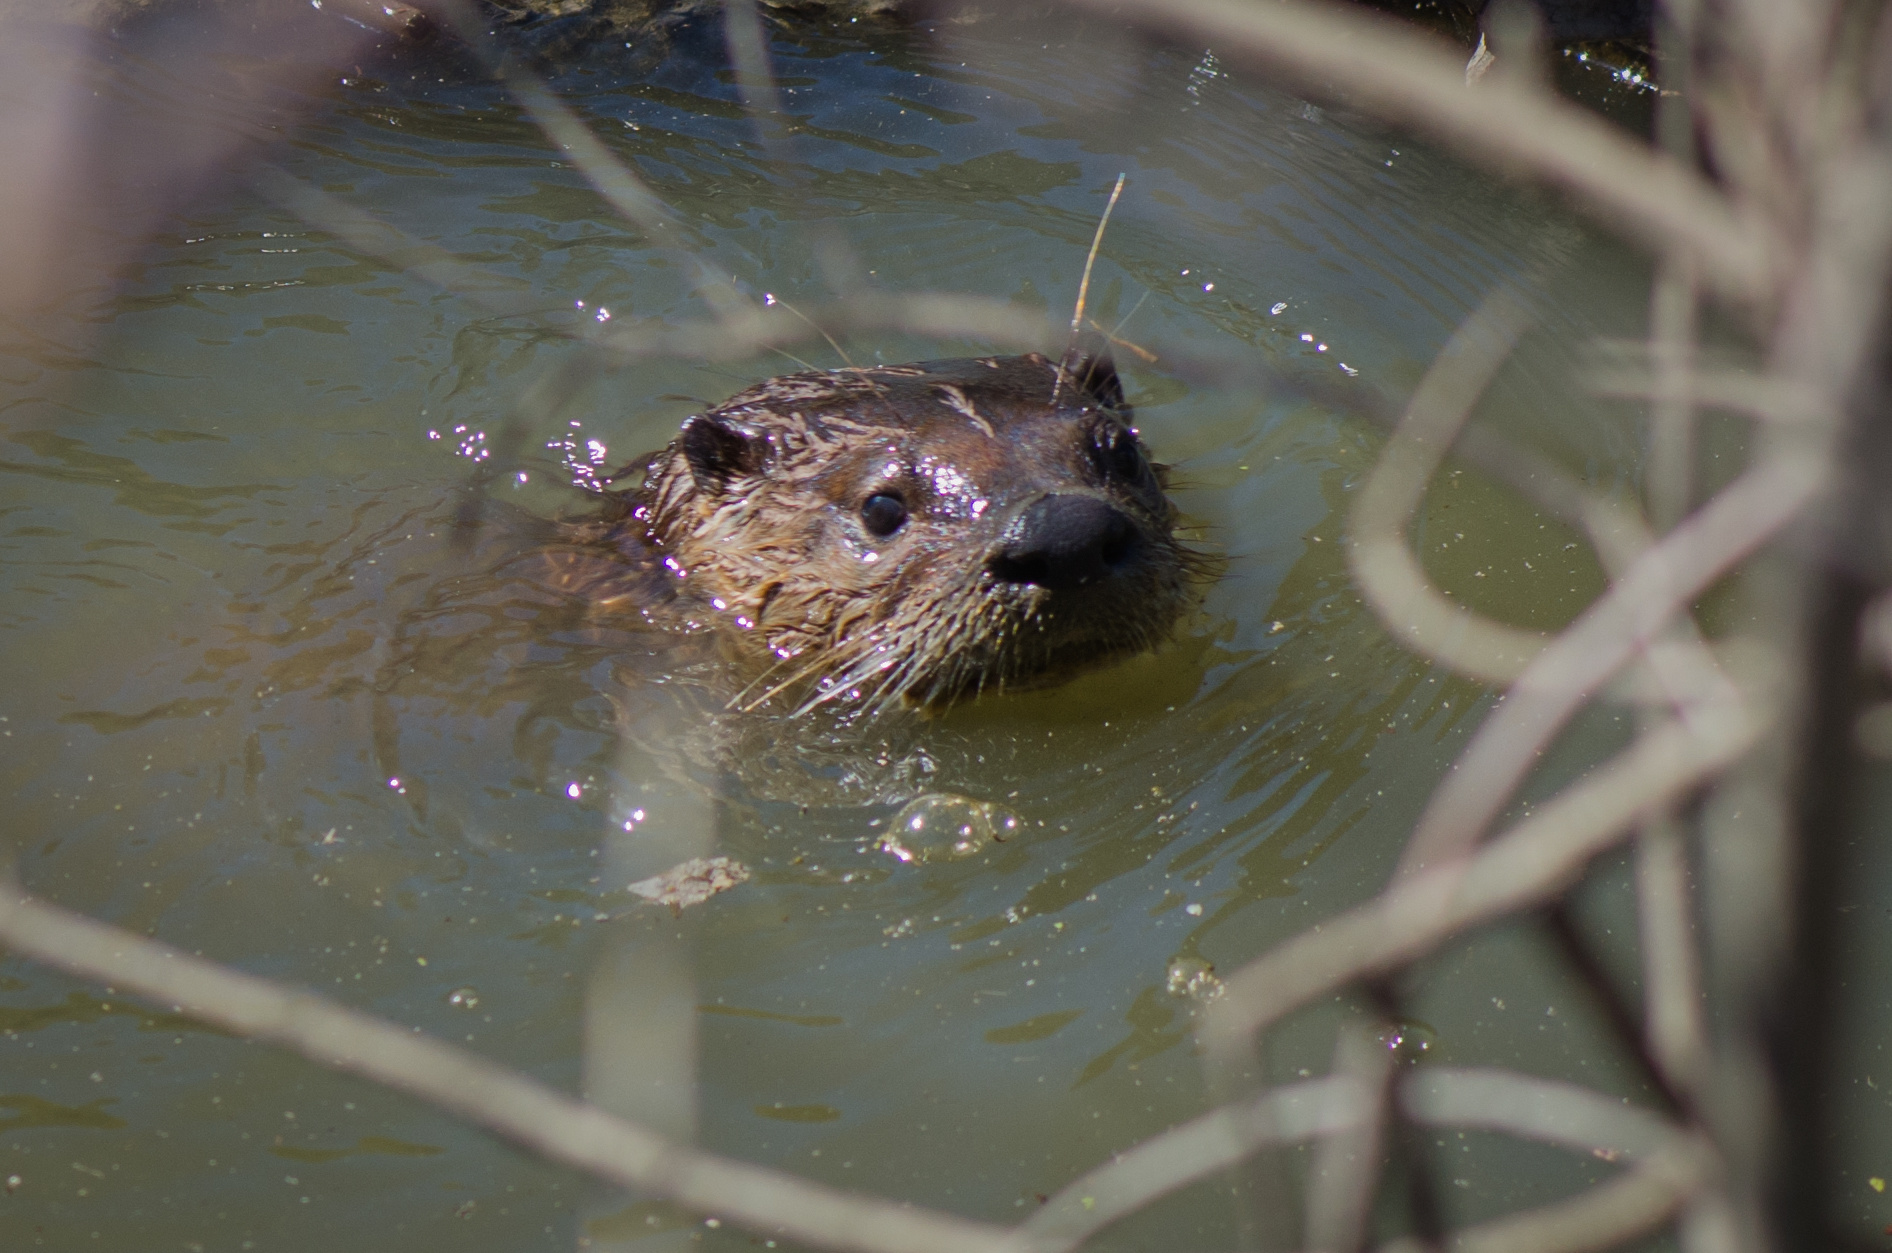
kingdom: Animalia
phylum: Chordata
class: Mammalia
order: Carnivora
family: Mustelidae
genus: Lontra
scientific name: Lontra canadensis
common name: North american river otter
